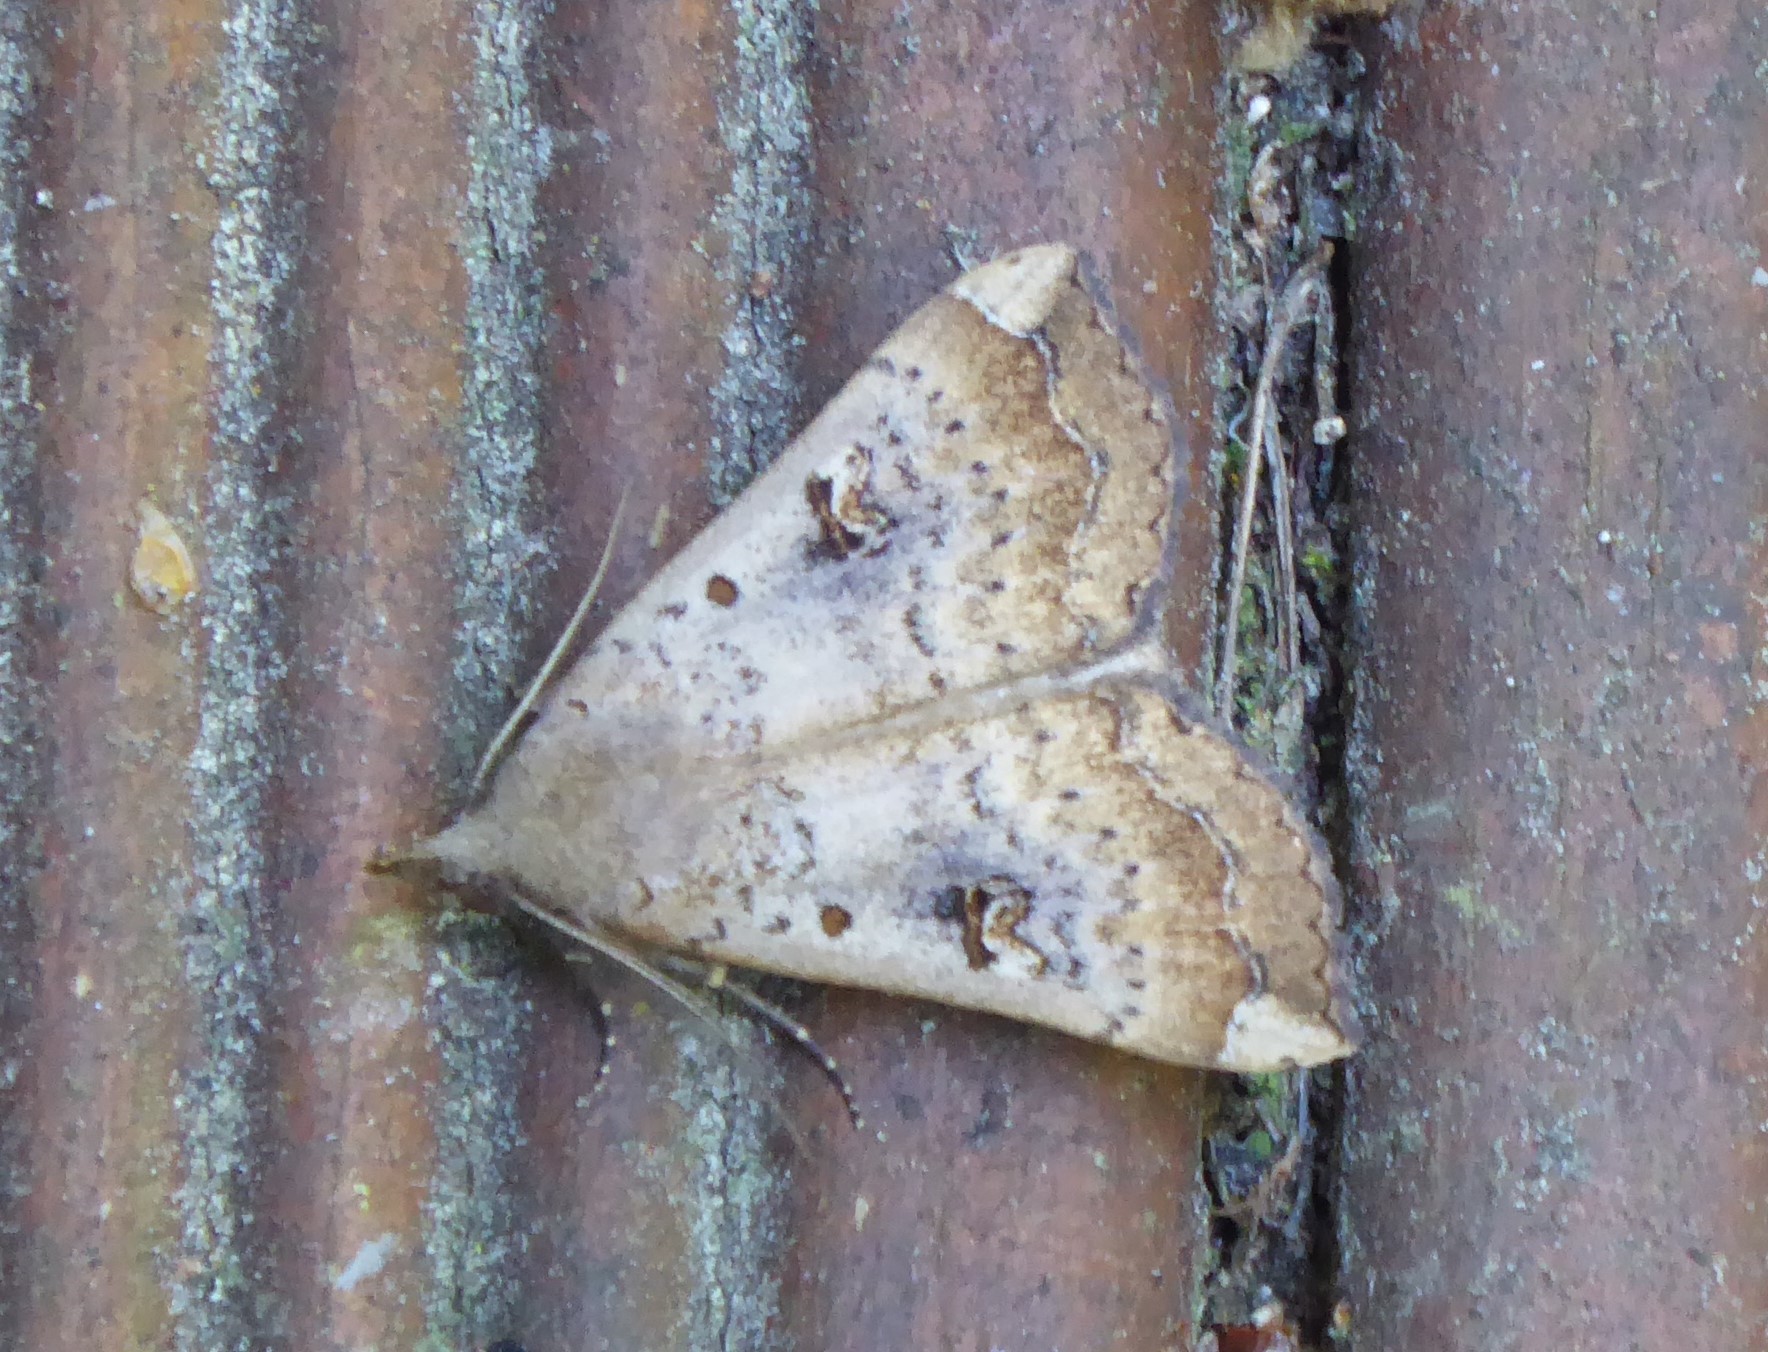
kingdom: Animalia
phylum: Arthropoda
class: Insecta
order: Lepidoptera
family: Erebidae
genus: Rhapsa
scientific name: Rhapsa scotosialis
